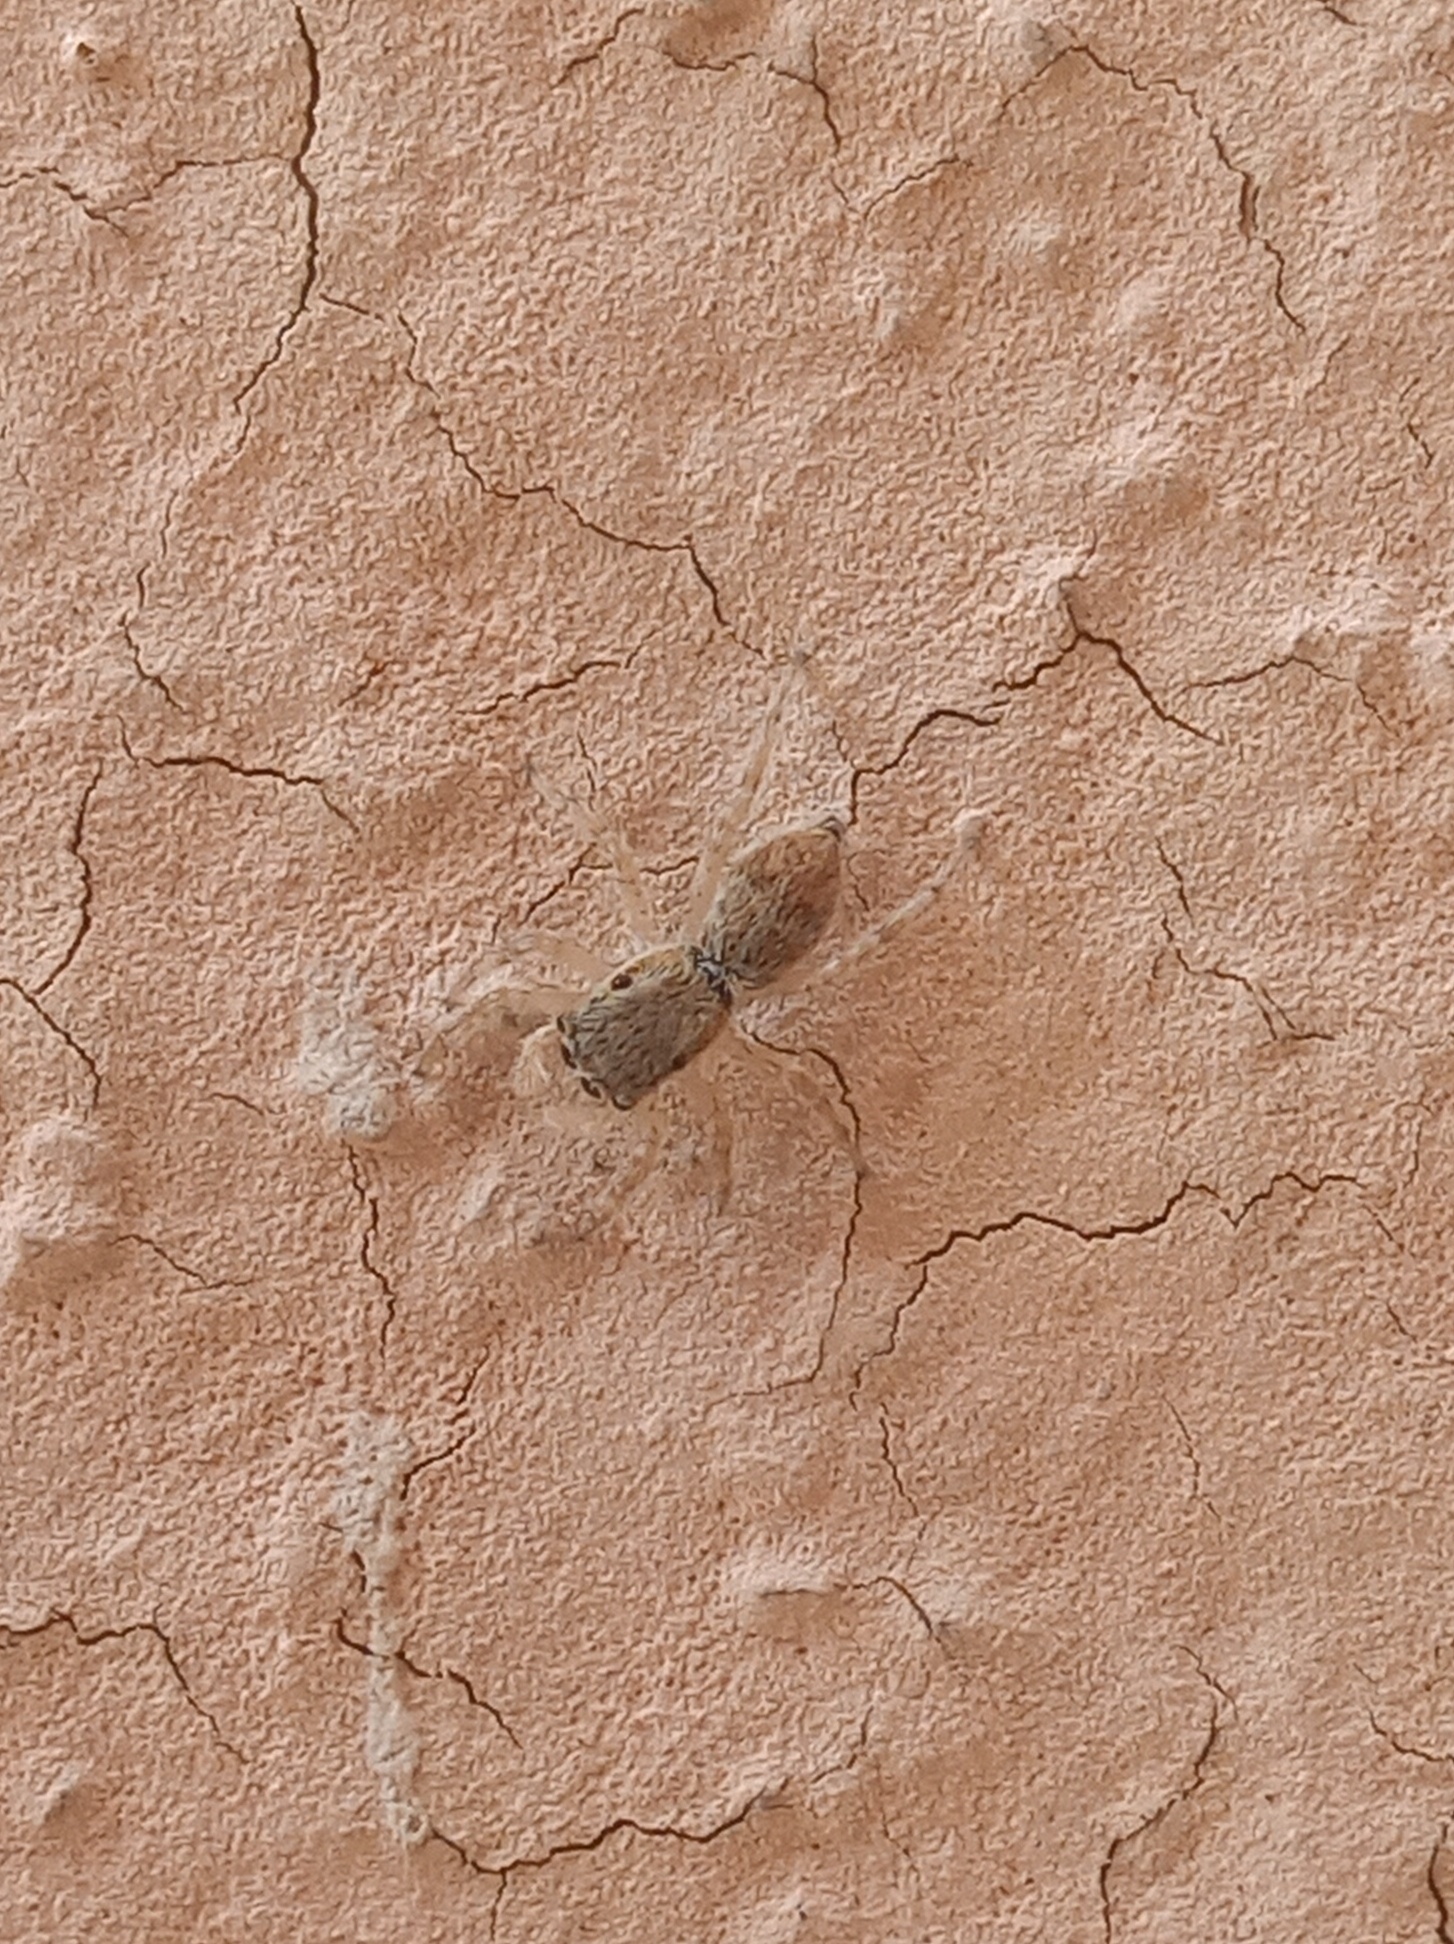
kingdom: Animalia
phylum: Arthropoda
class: Arachnida
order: Araneae
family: Salticidae
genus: Menemerus
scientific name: Menemerus bivittatus
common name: Gray wall jumper
